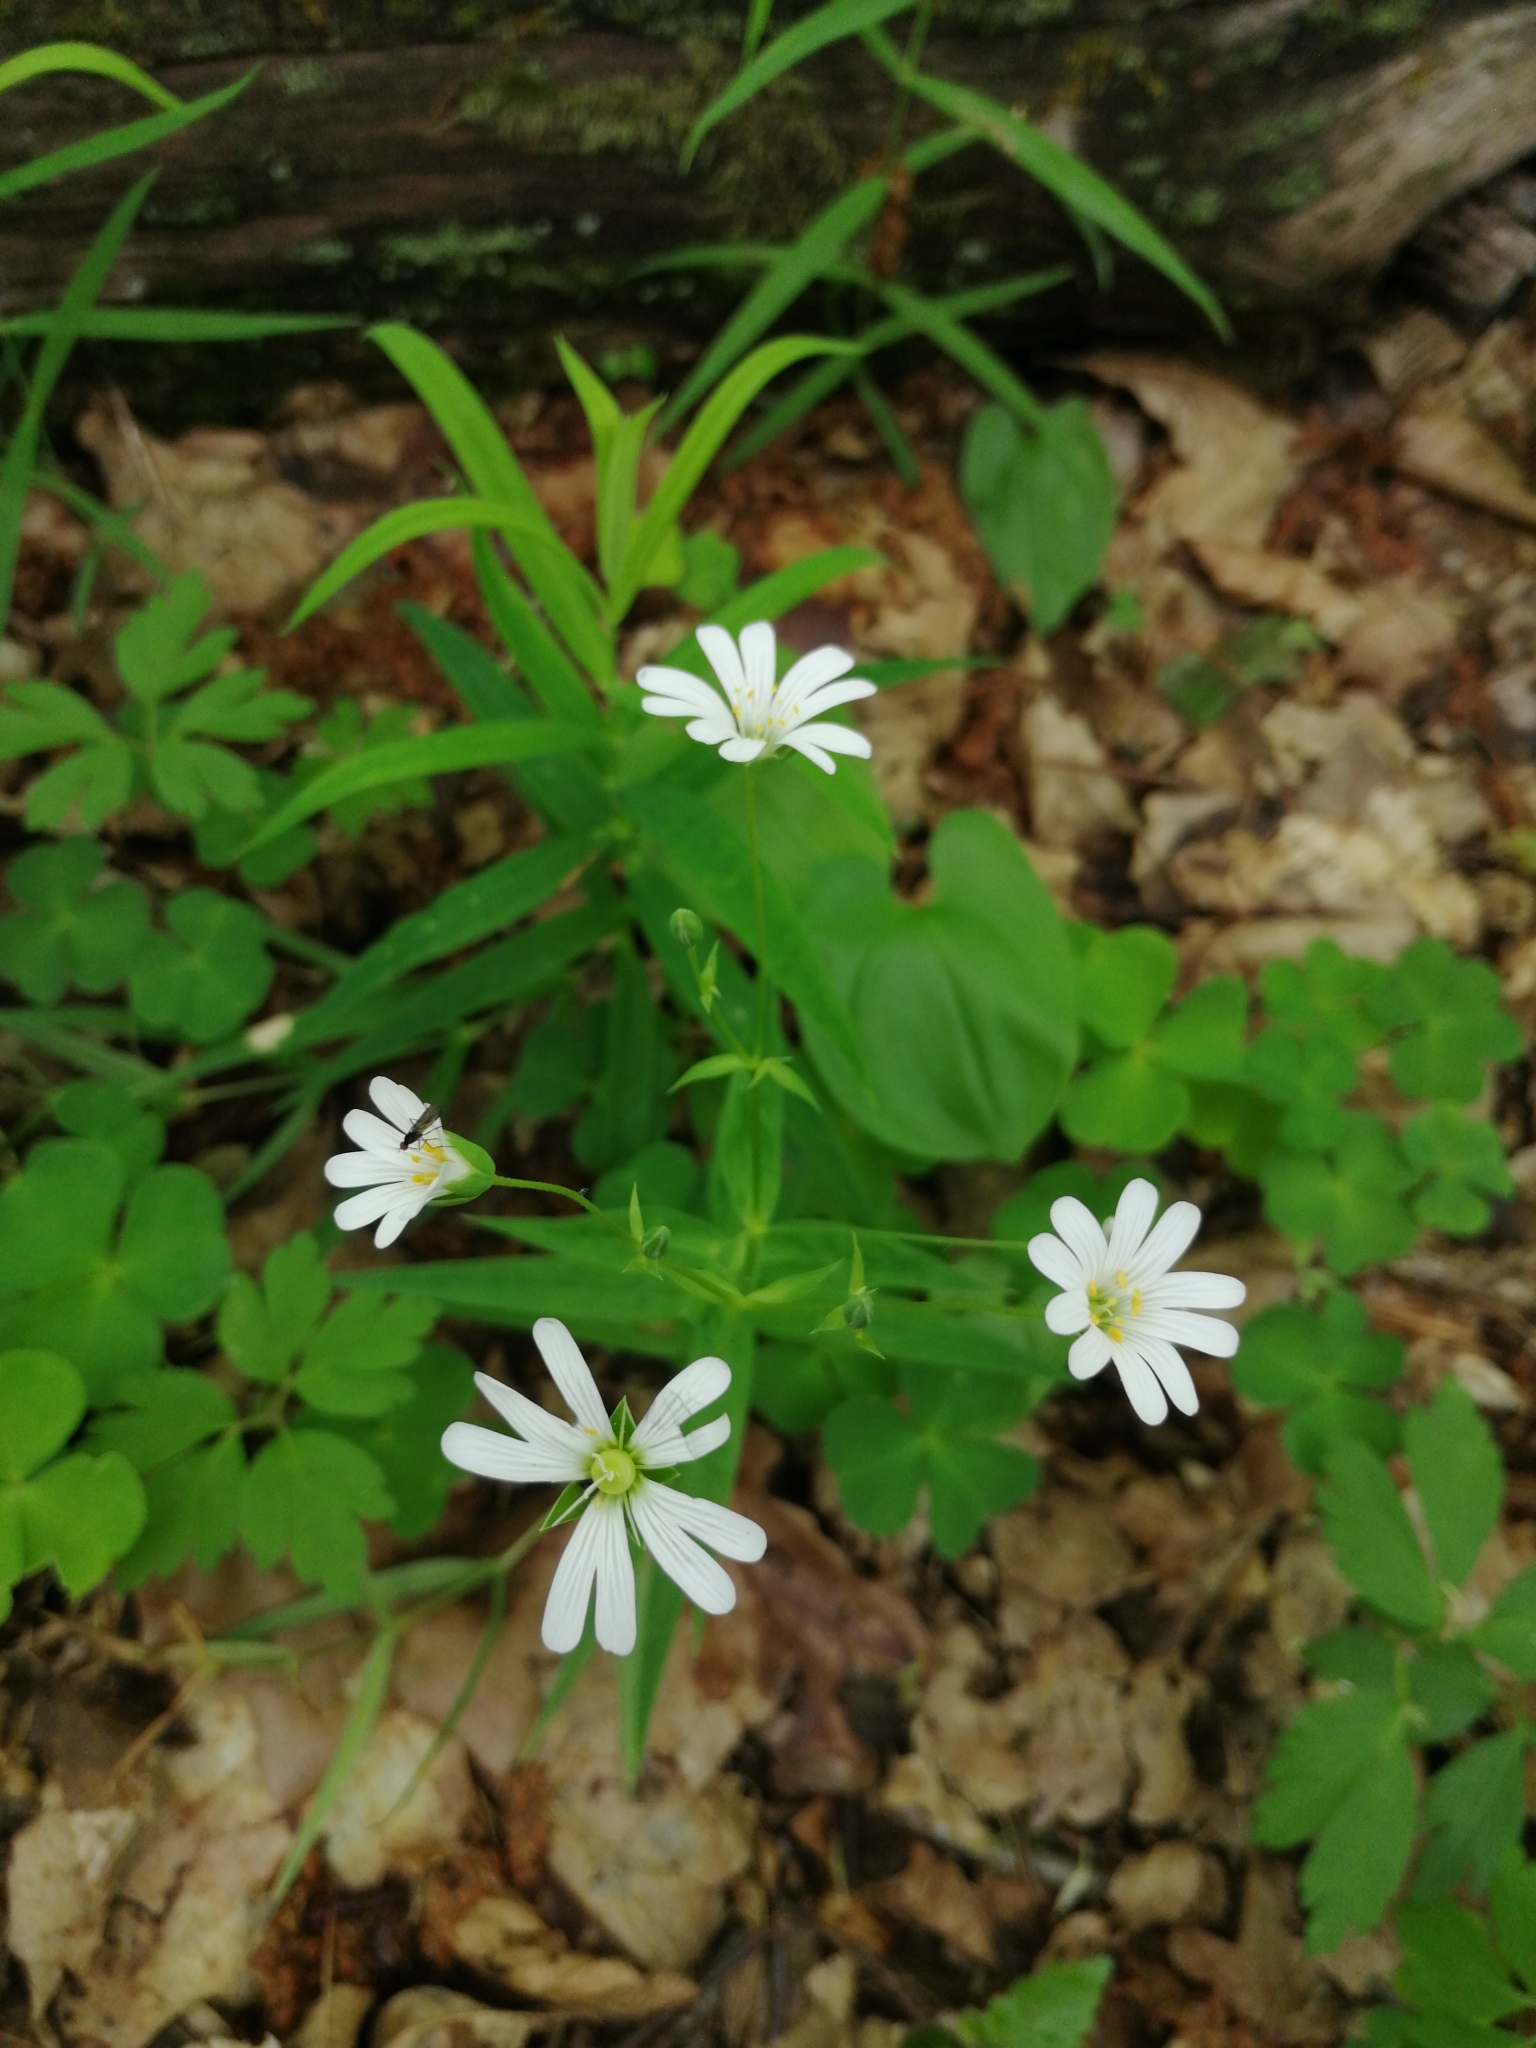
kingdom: Plantae
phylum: Tracheophyta
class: Magnoliopsida
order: Caryophyllales
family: Caryophyllaceae
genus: Rabelera
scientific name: Rabelera holostea
